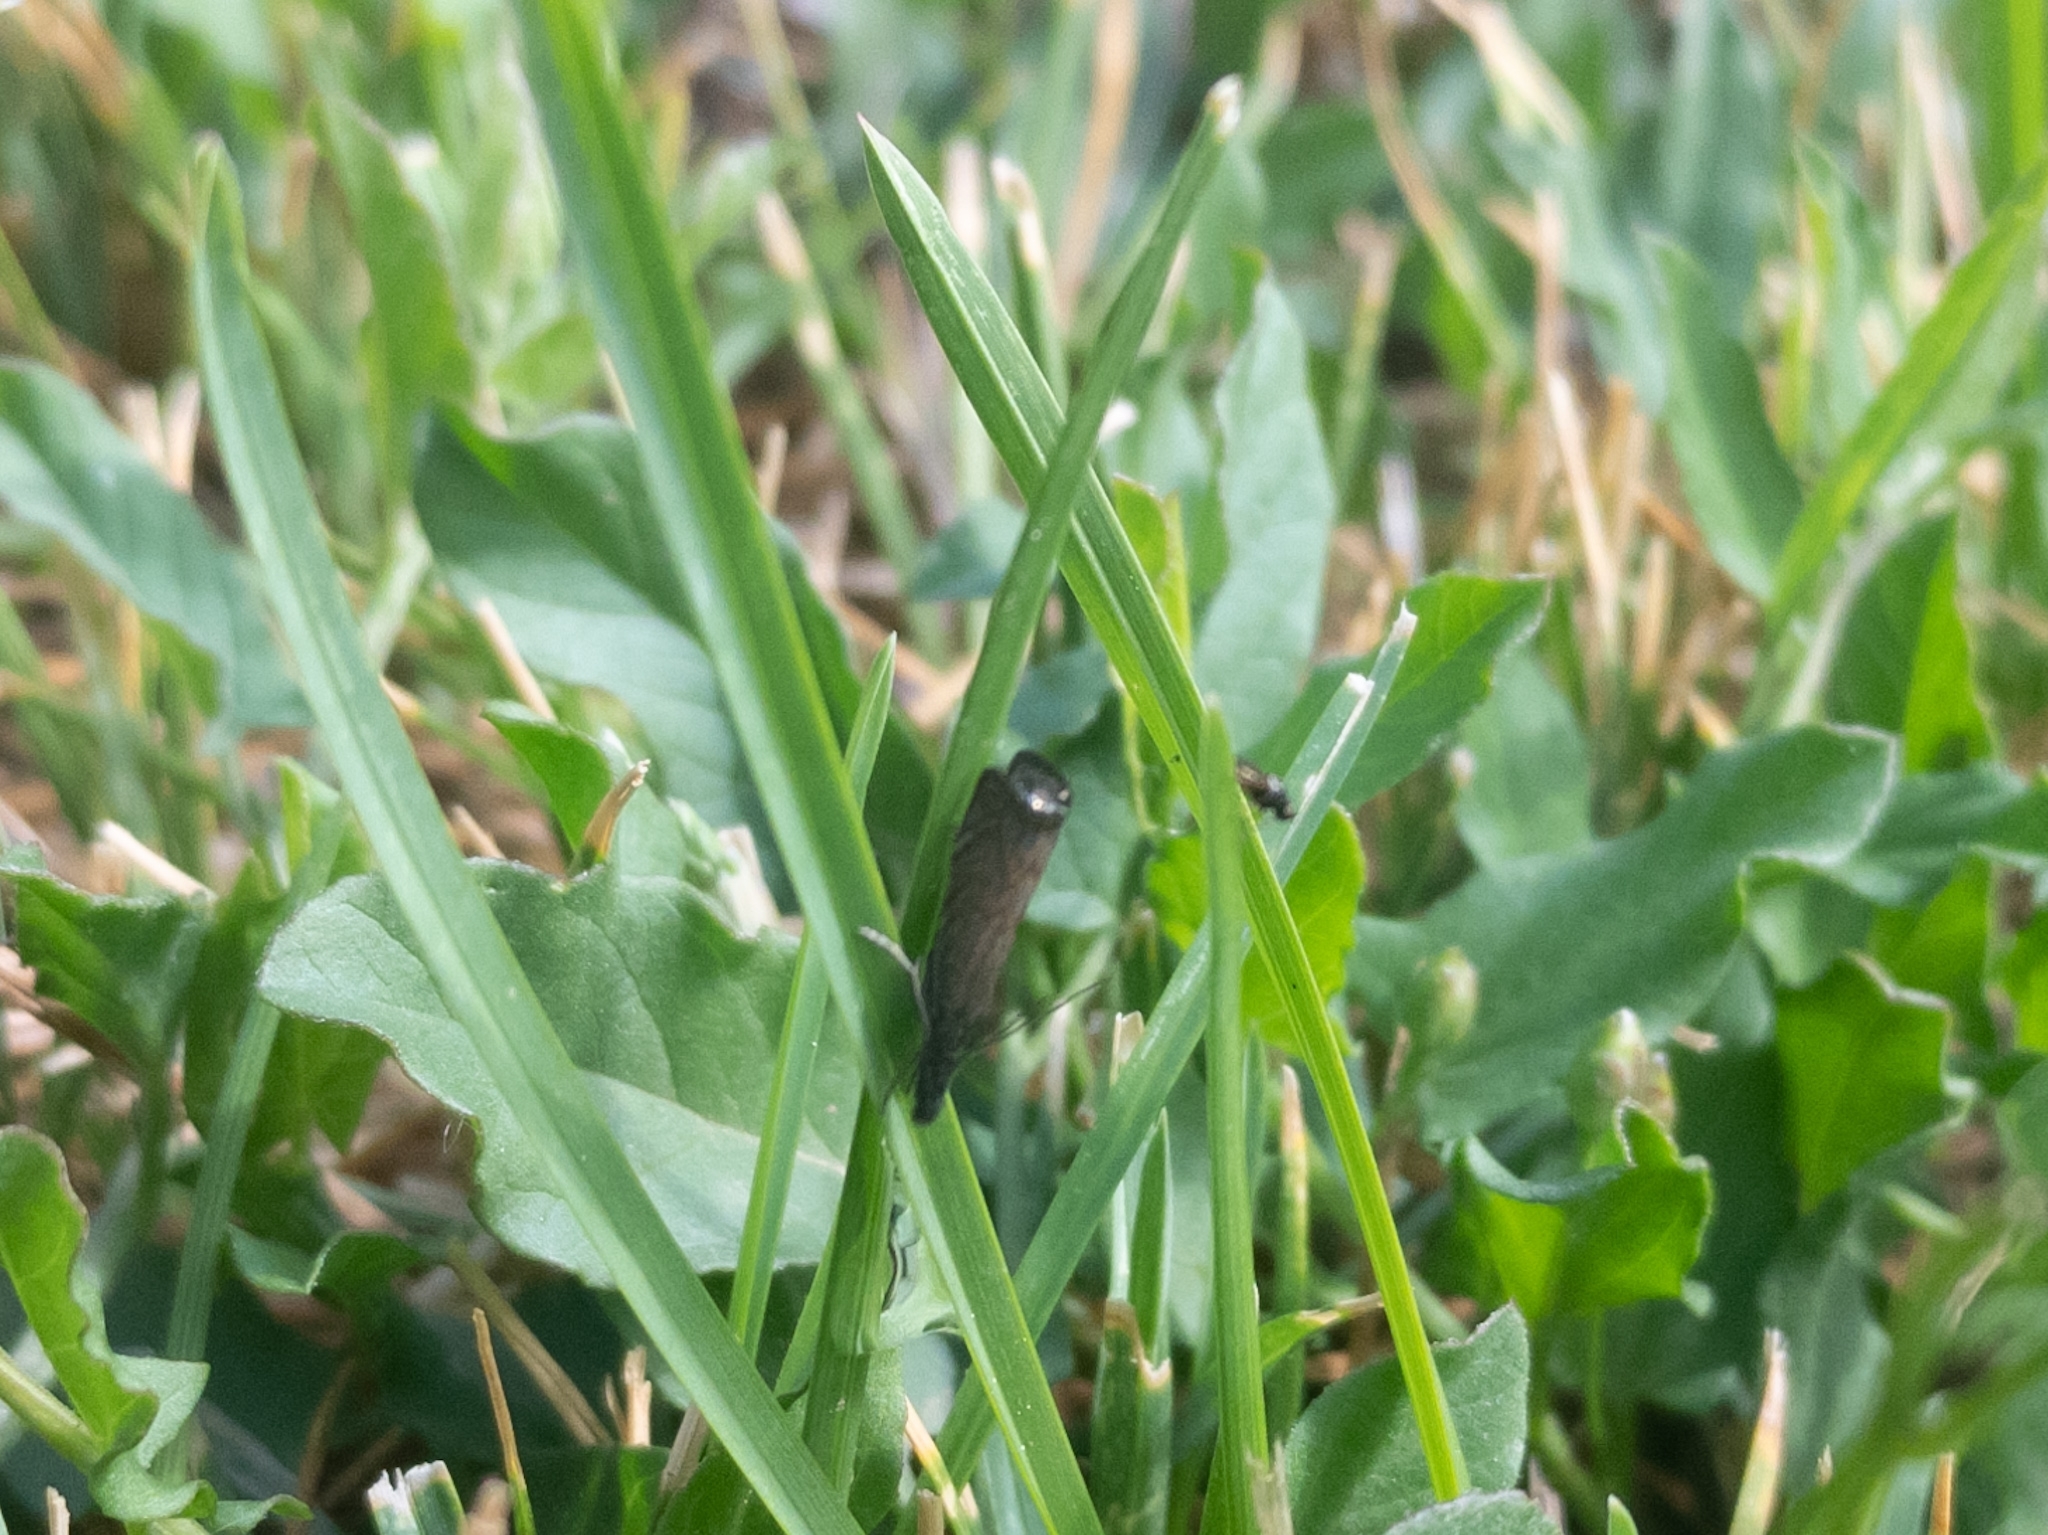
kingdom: Animalia
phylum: Arthropoda
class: Insecta
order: Lepidoptera
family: Crambidae
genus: Platytes
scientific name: Platytes cerusella
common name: Little grass-veneer
